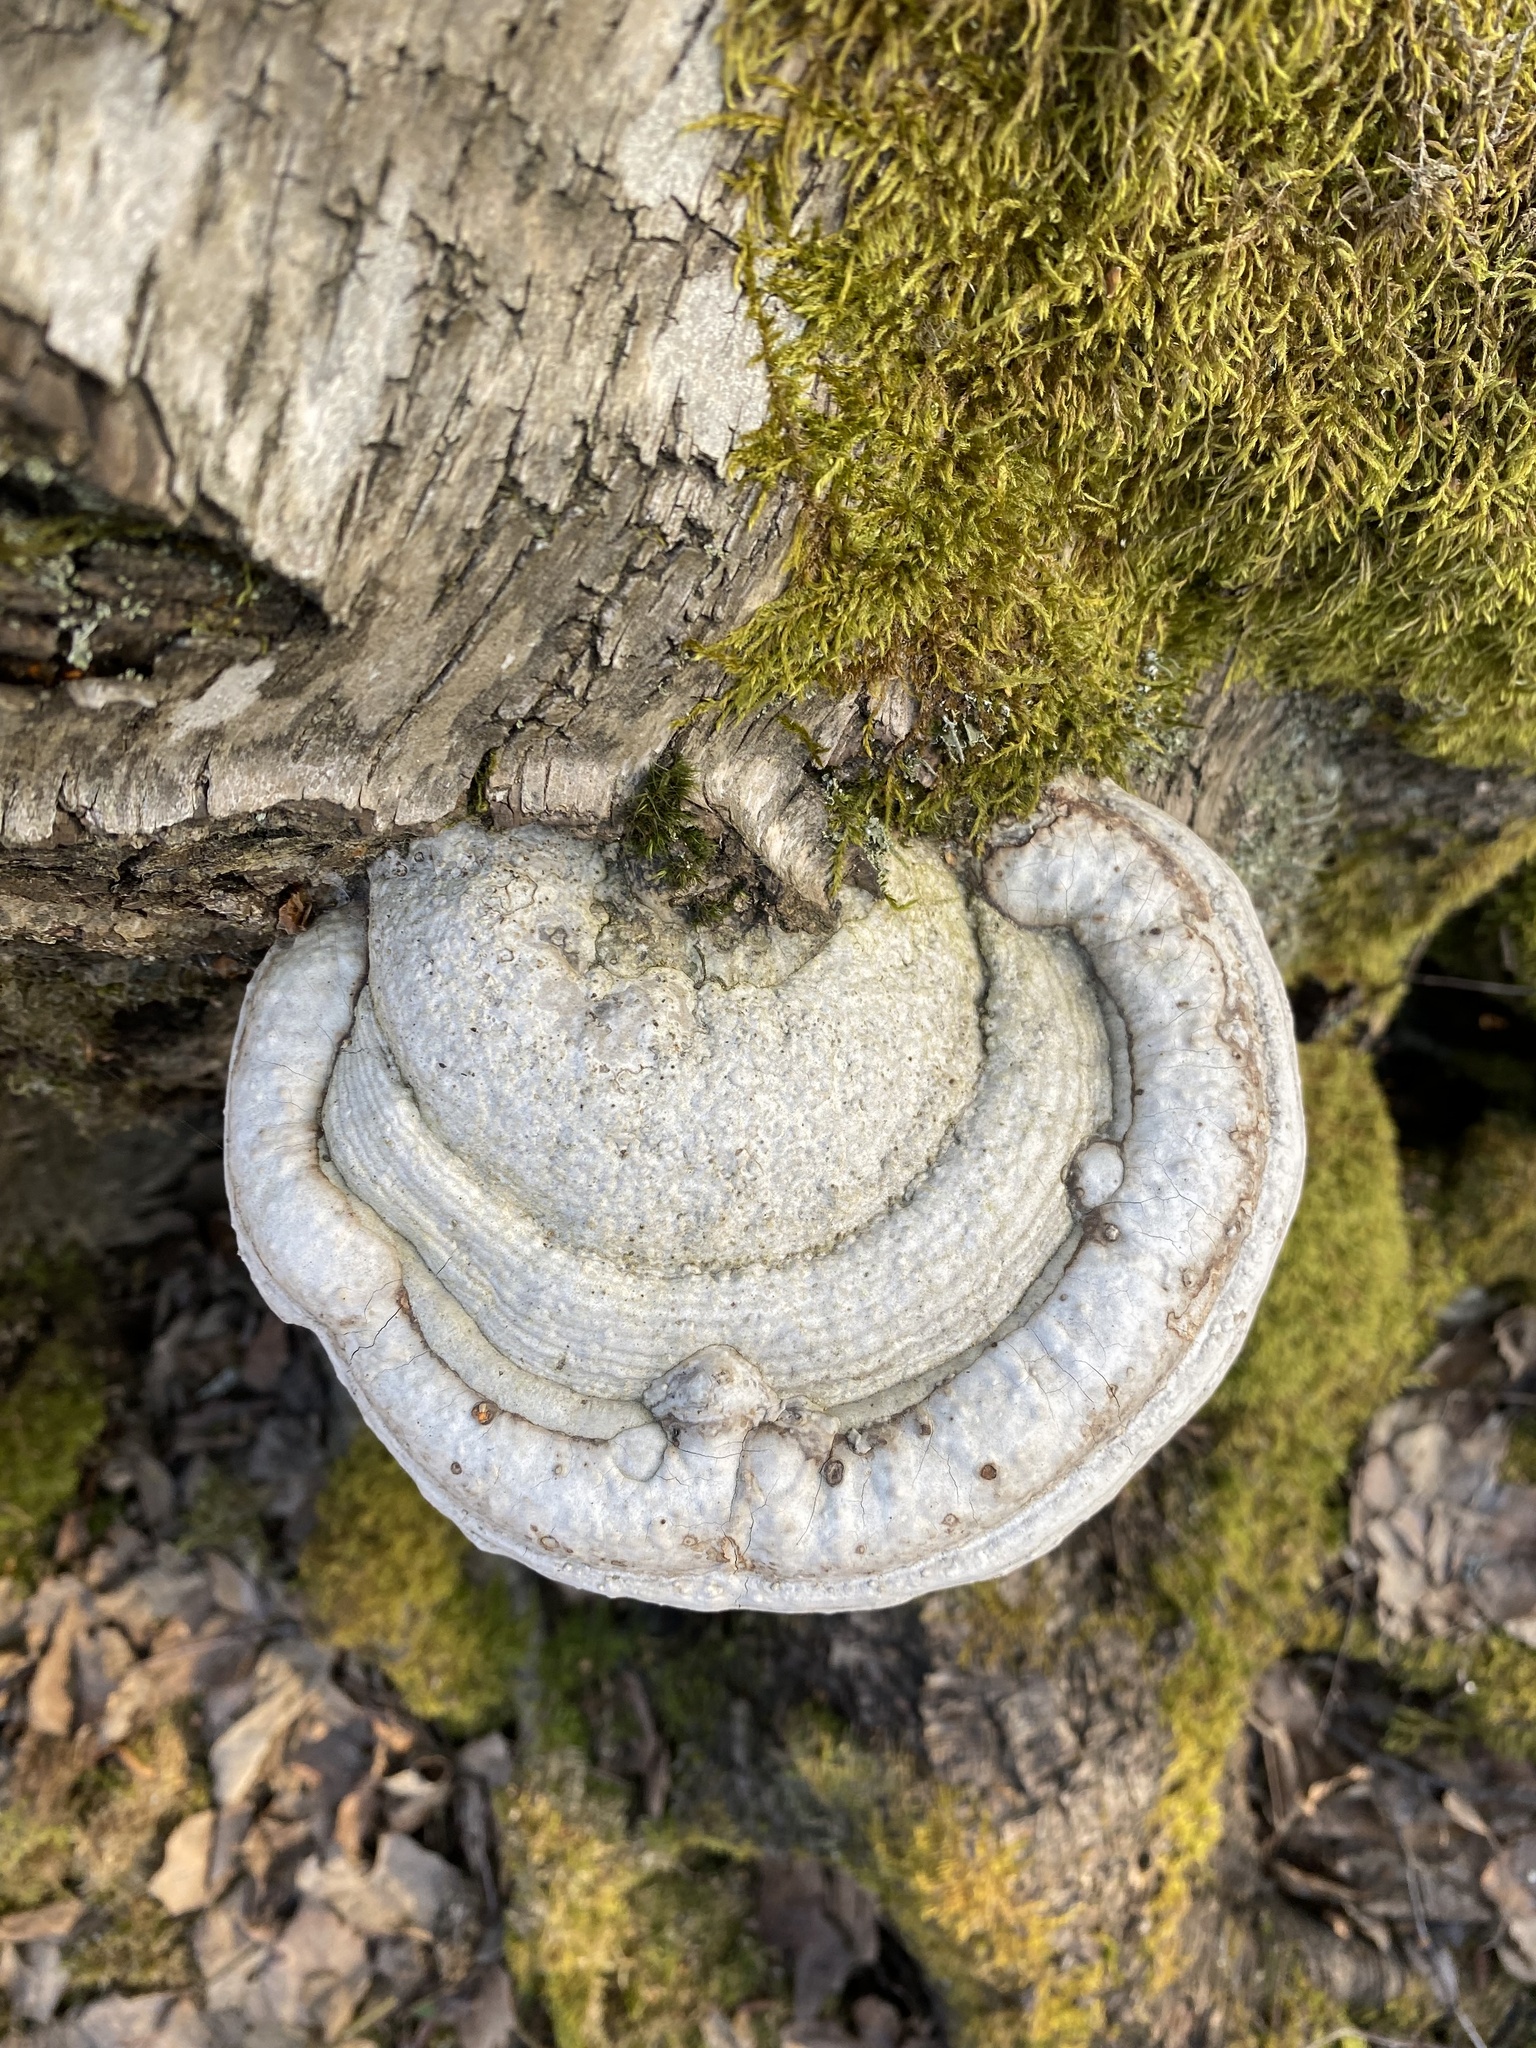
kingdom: Fungi
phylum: Basidiomycota
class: Agaricomycetes
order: Polyporales
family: Polyporaceae
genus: Fomes
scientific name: Fomes fomentarius
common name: Hoof fungus
